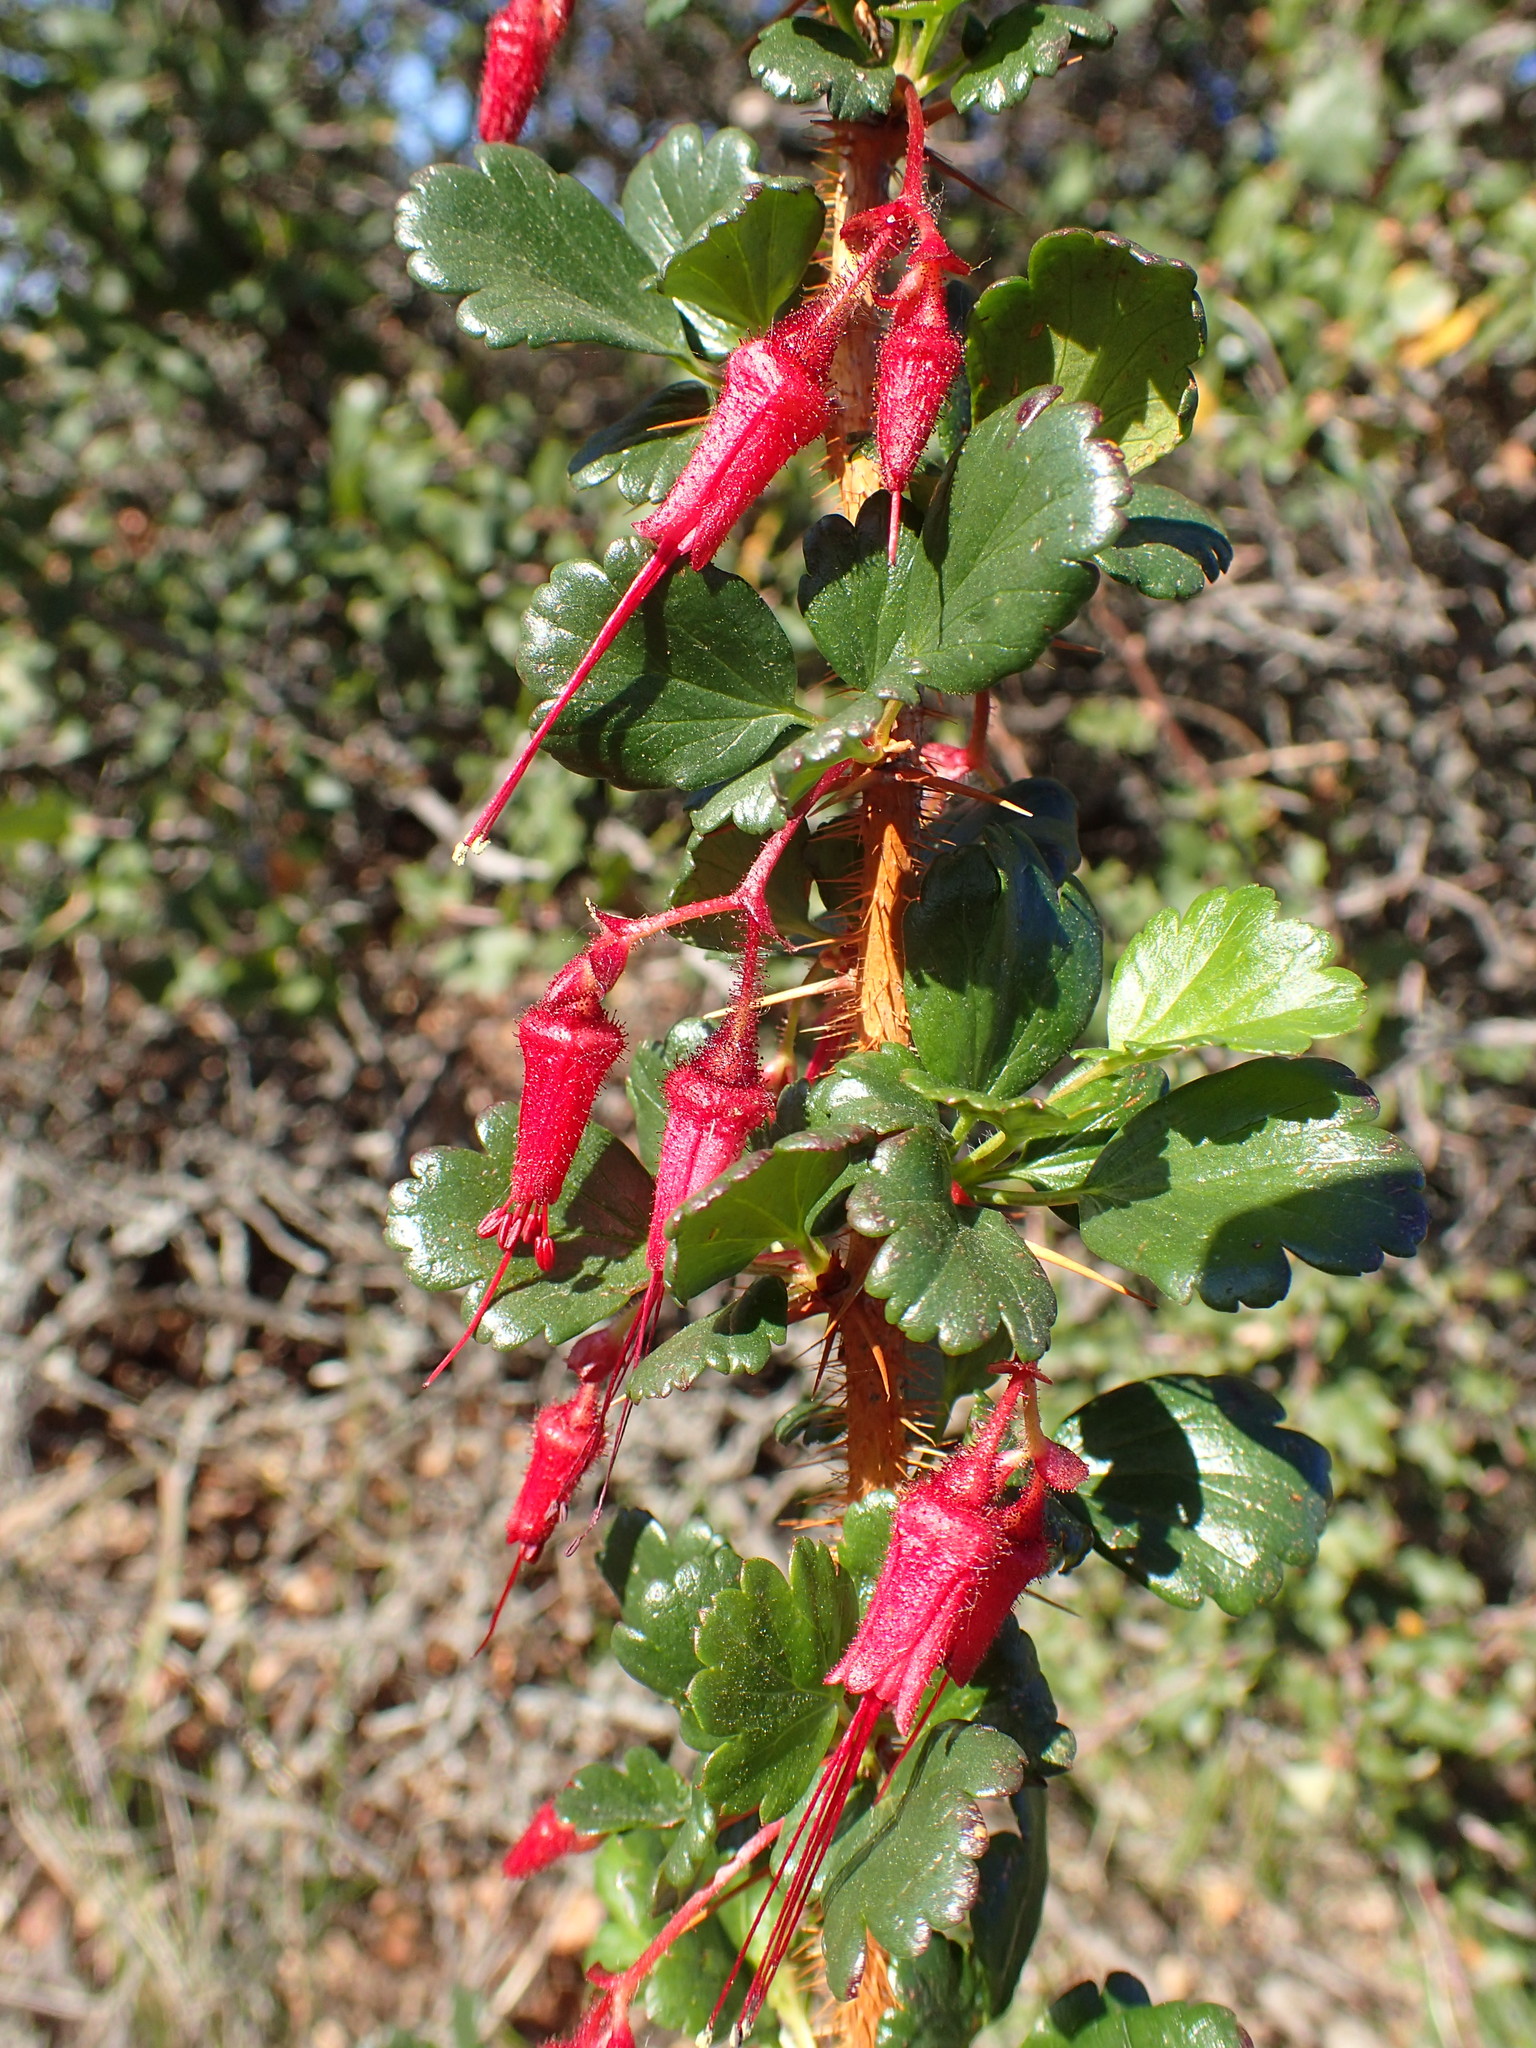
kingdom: Plantae
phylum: Tracheophyta
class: Magnoliopsida
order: Saxifragales
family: Grossulariaceae
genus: Ribes
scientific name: Ribes speciosum
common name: Fuchsia-flower gooseberry
